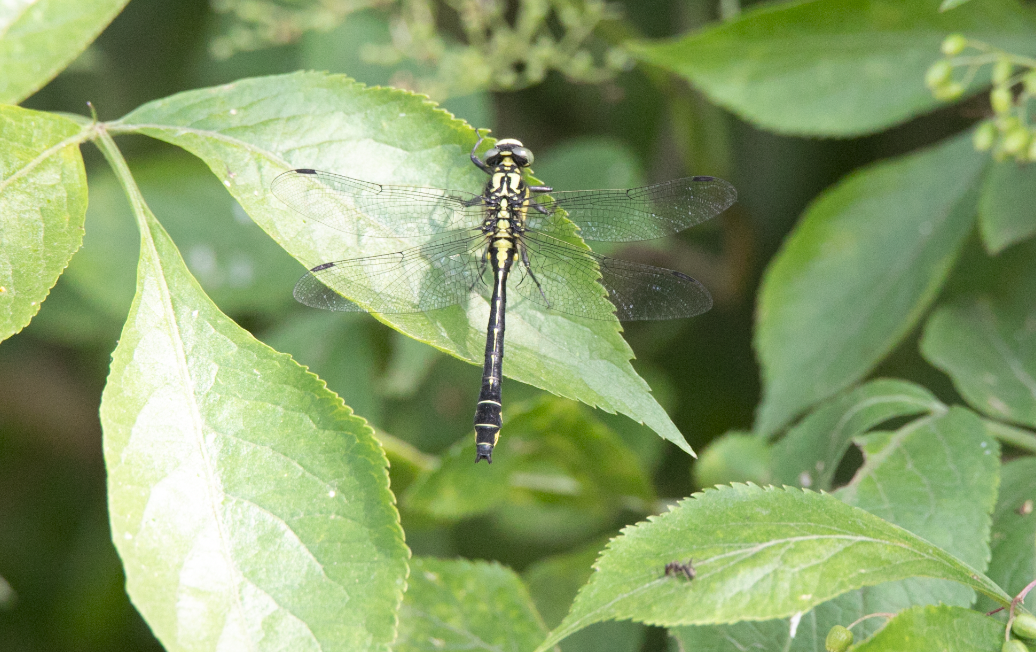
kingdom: Animalia
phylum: Arthropoda
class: Insecta
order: Odonata
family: Gomphidae
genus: Gomphus
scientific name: Gomphus vulgatissimus
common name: Club-tailed dragonfly
